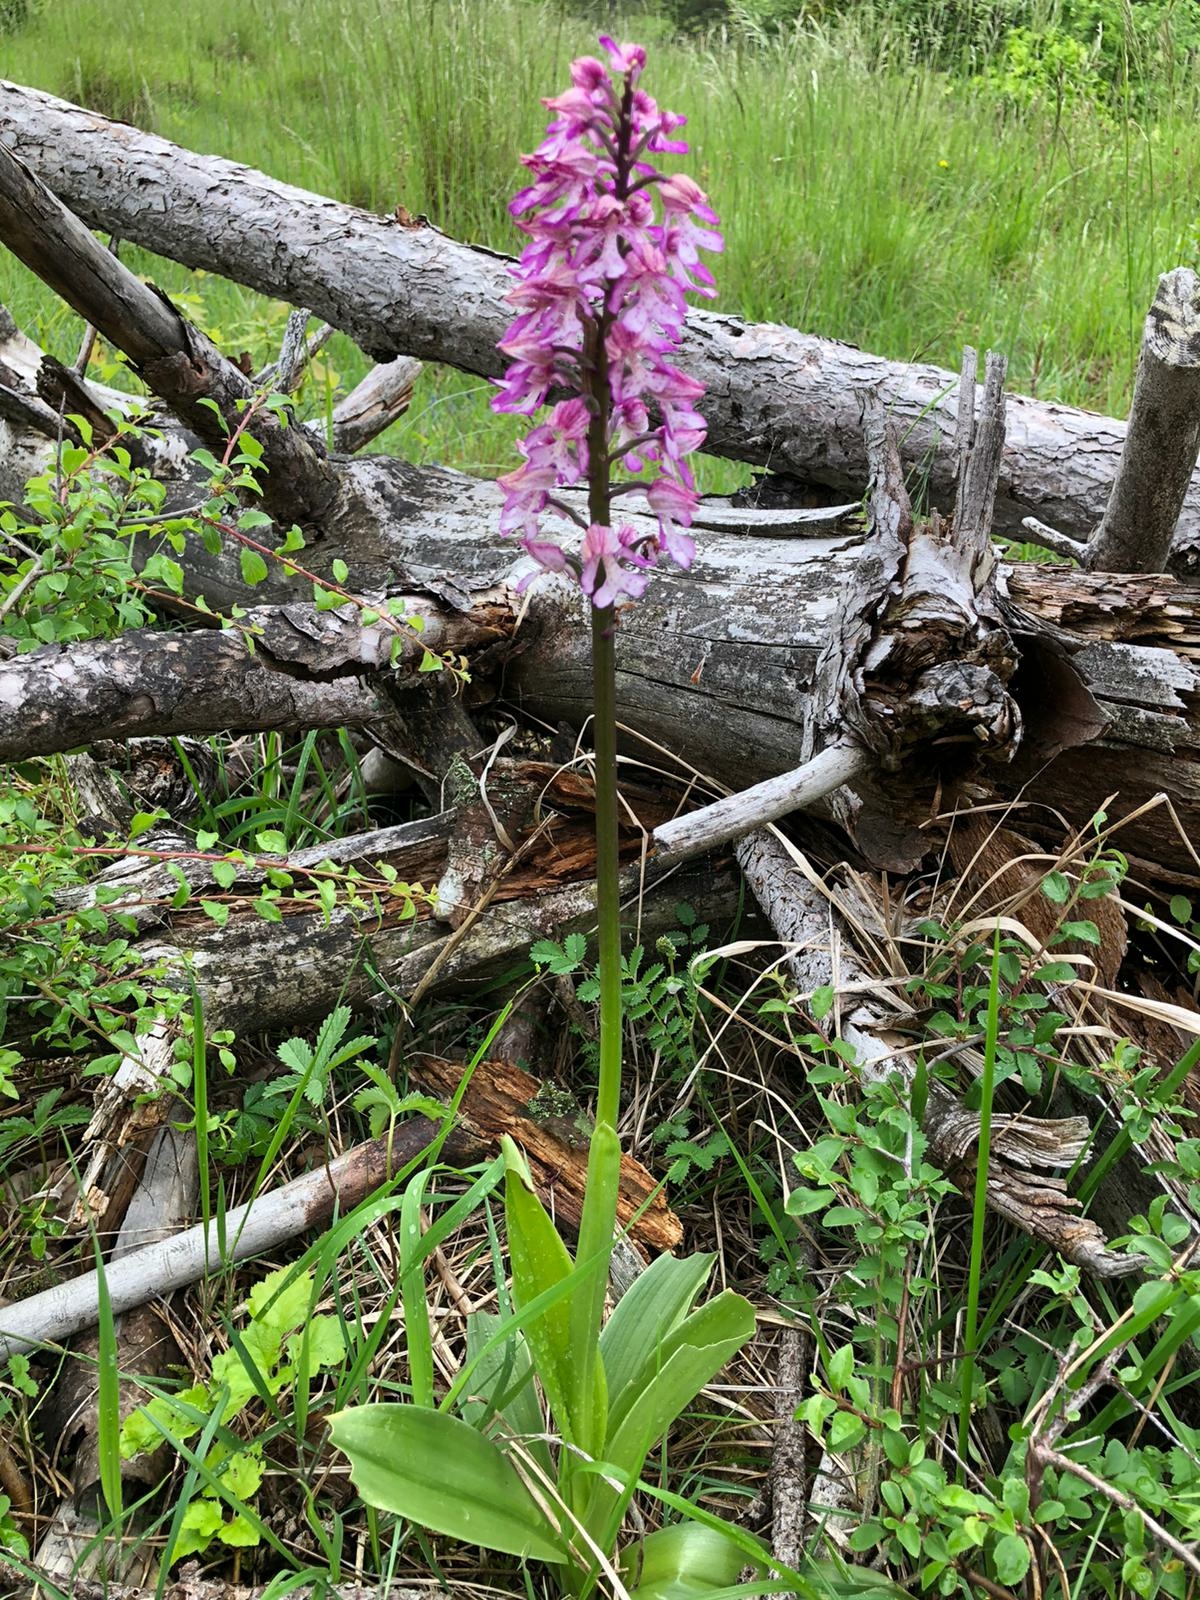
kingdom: Plantae
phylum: Tracheophyta
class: Liliopsida
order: Asparagales
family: Orchidaceae
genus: Orchis
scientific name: Orchis hybrida
